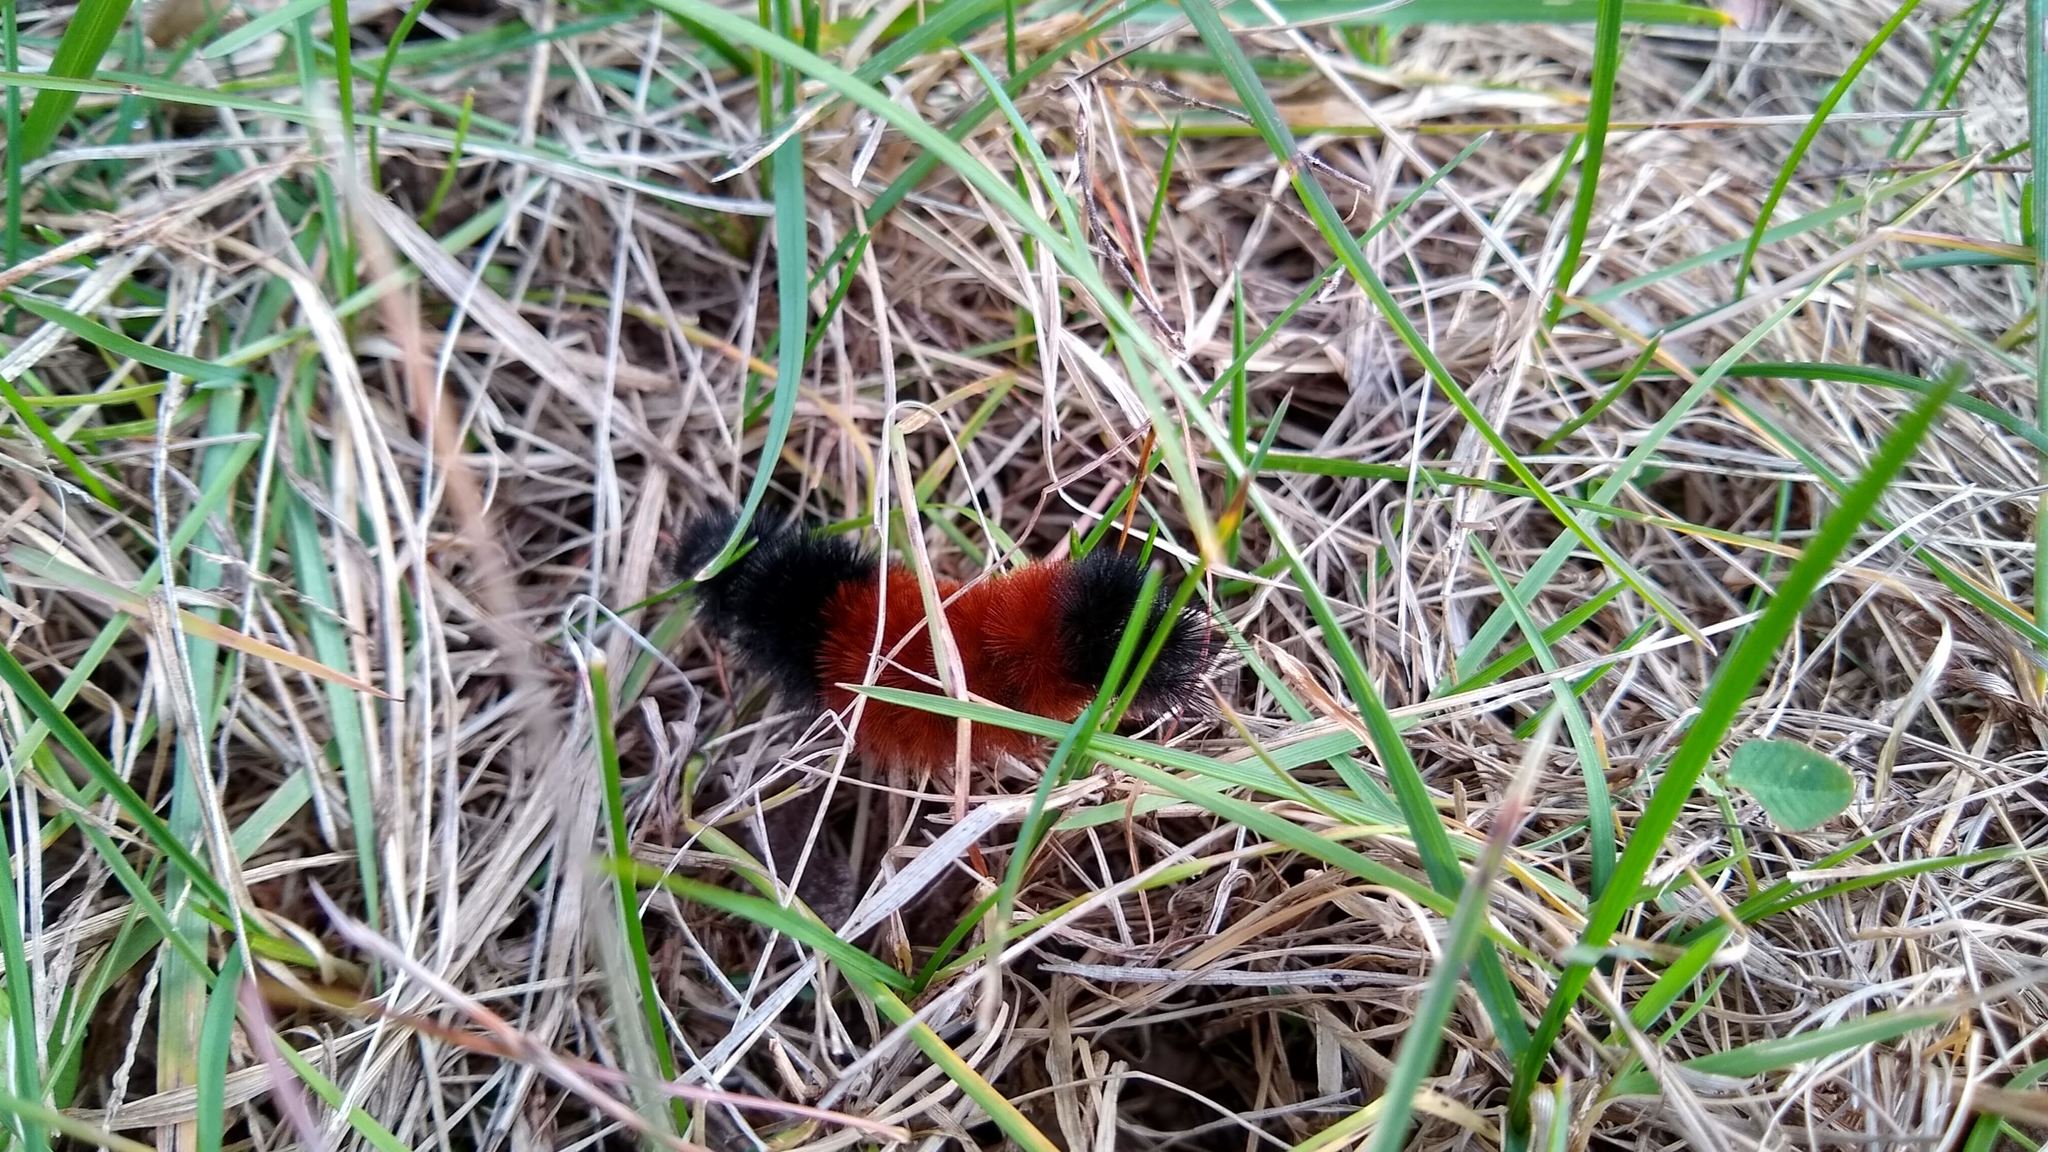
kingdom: Animalia
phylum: Arthropoda
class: Insecta
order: Lepidoptera
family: Erebidae
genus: Pyrrharctia
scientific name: Pyrrharctia isabella
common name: Isabella tiger moth
